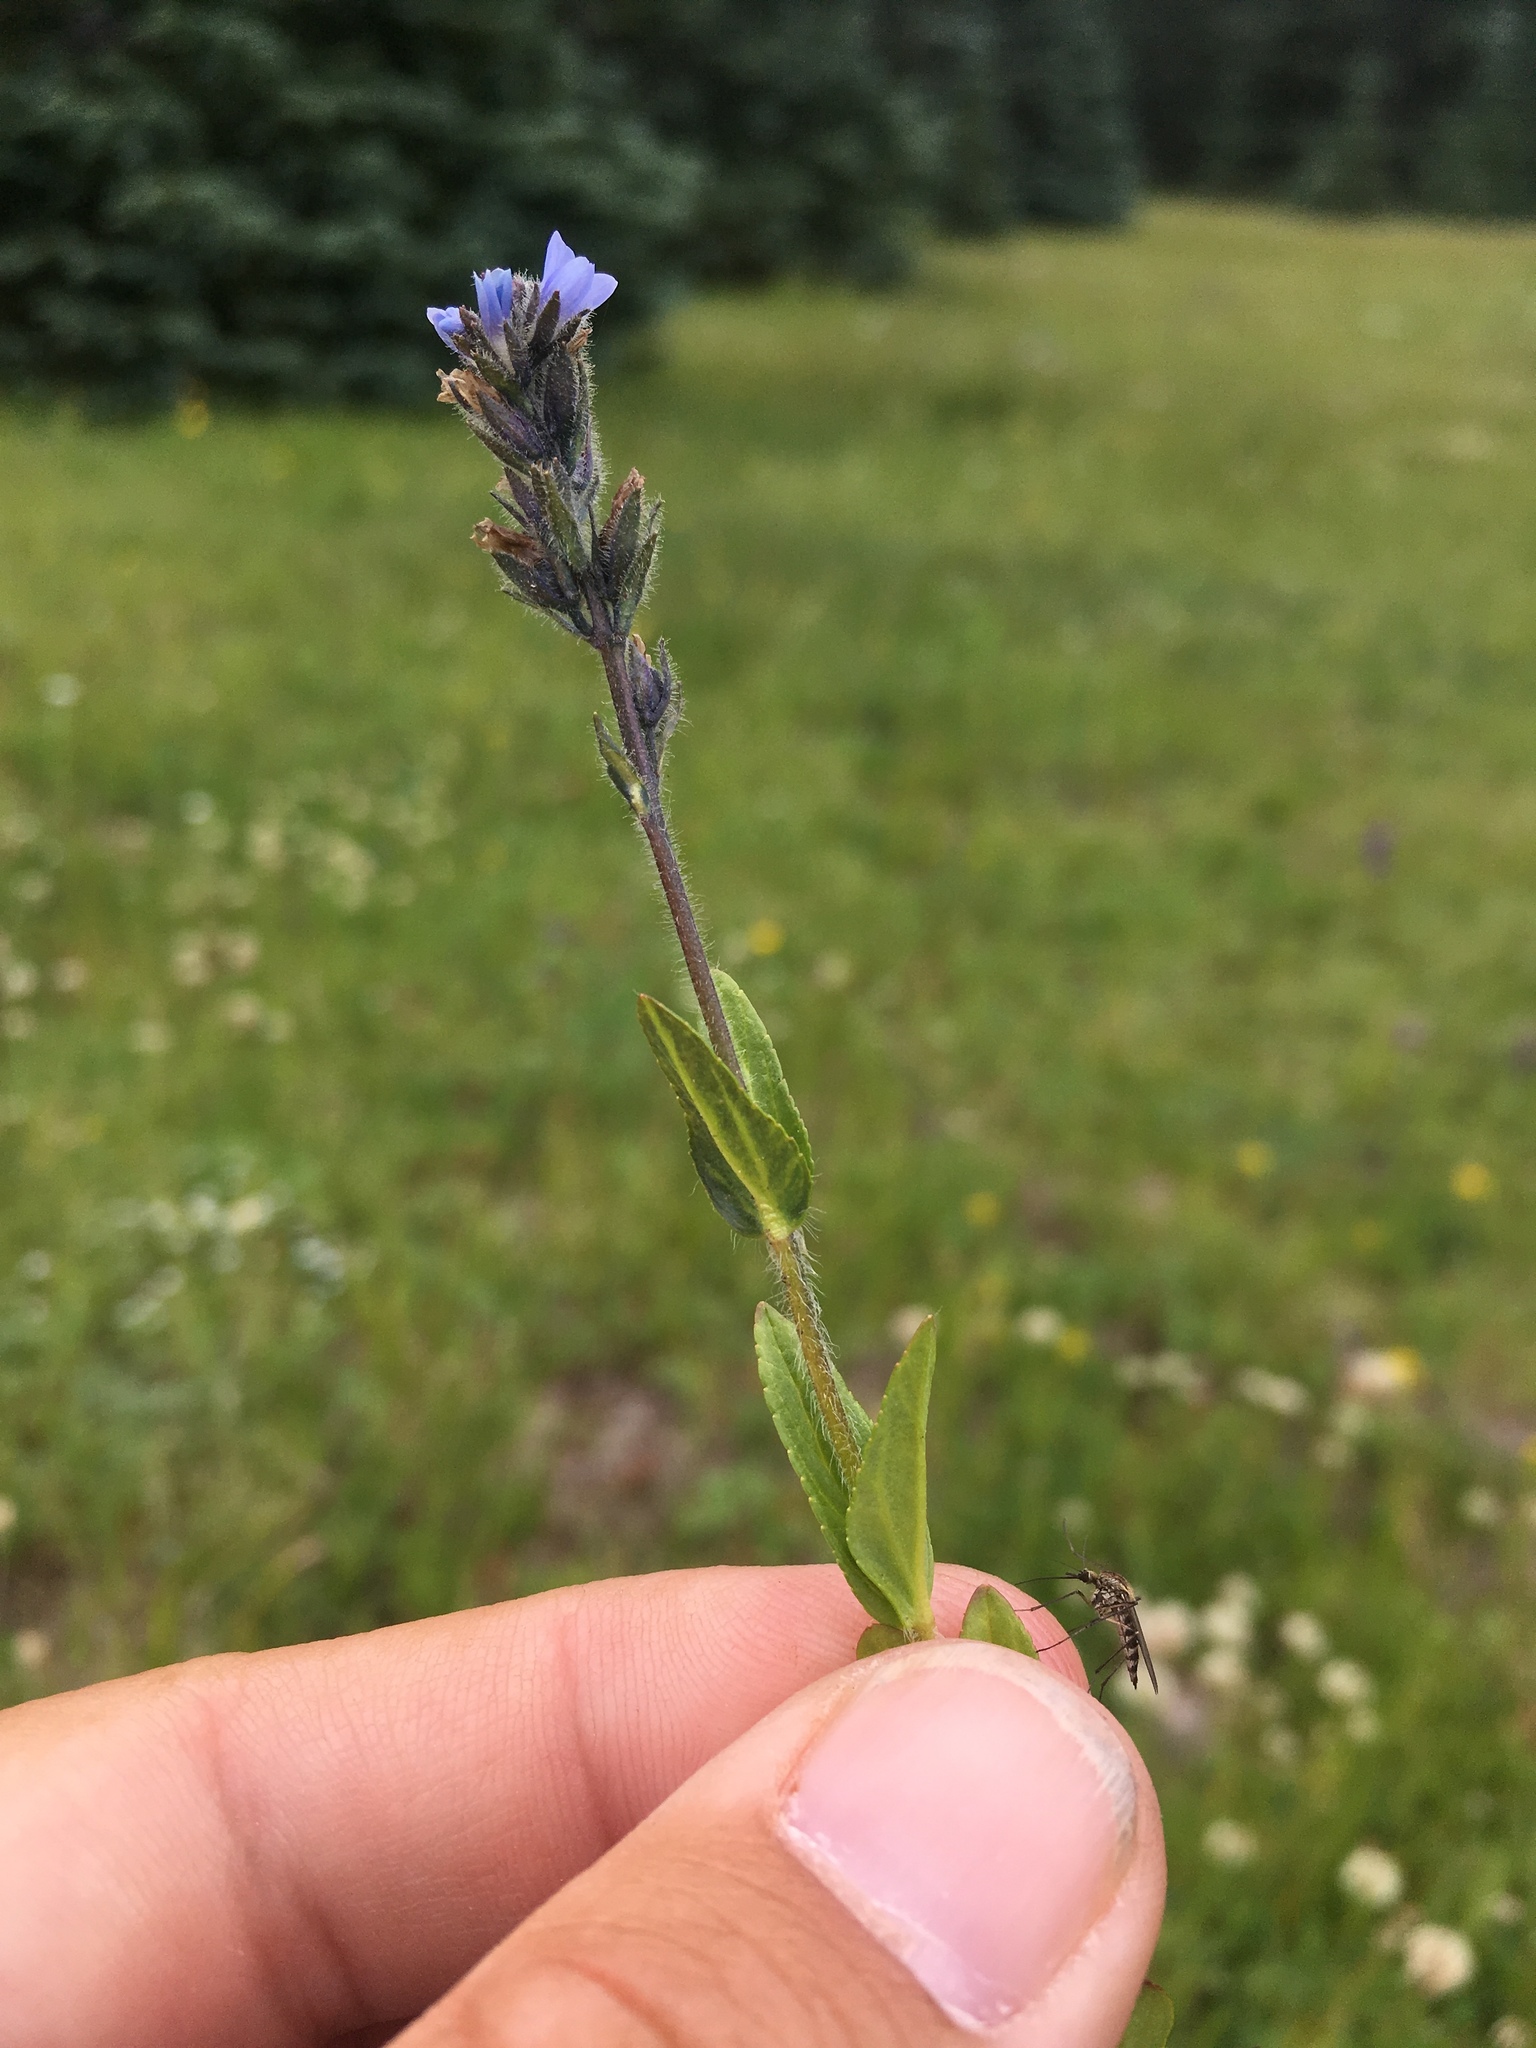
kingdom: Plantae
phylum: Tracheophyta
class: Magnoliopsida
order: Lamiales
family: Plantaginaceae
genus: Veronica
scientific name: Veronica wormskjoldii
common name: American alpine speedwell
